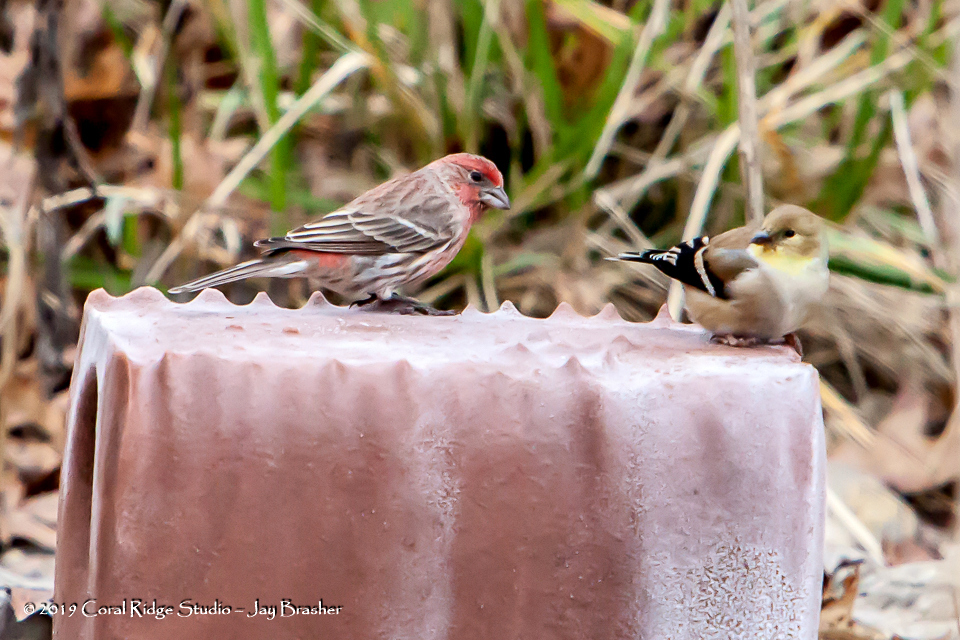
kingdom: Animalia
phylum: Chordata
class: Aves
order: Passeriformes
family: Fringillidae
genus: Haemorhous
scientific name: Haemorhous mexicanus
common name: House finch
